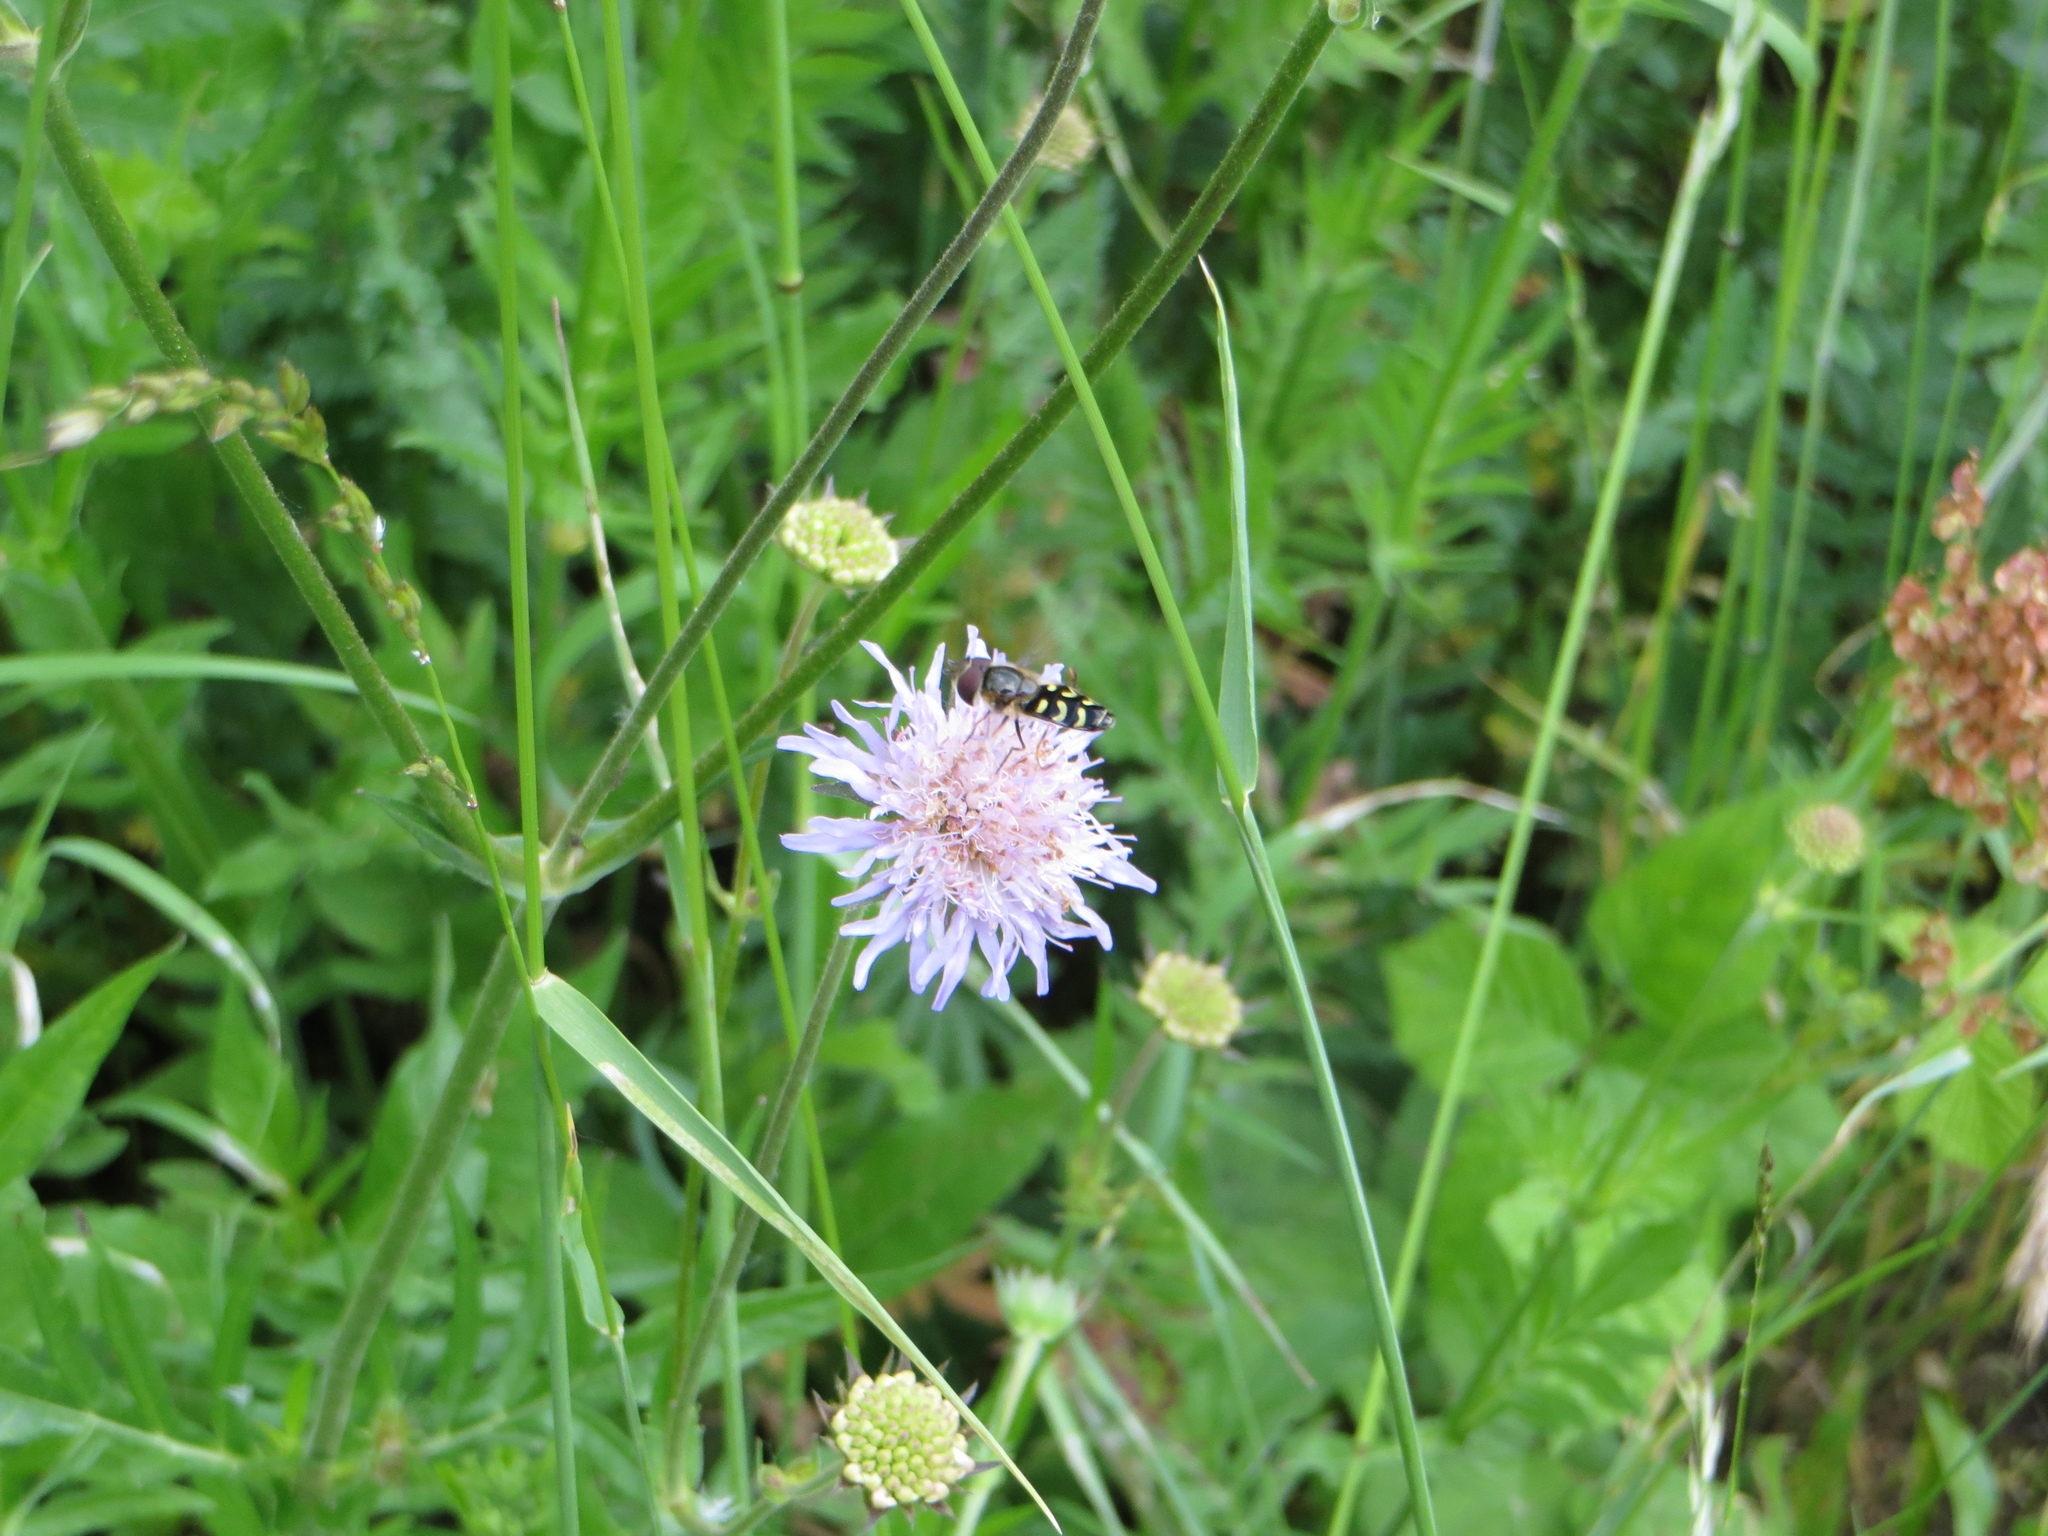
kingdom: Animalia
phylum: Arthropoda
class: Insecta
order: Diptera
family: Syrphidae
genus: Scaeva
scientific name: Scaeva selenitica
